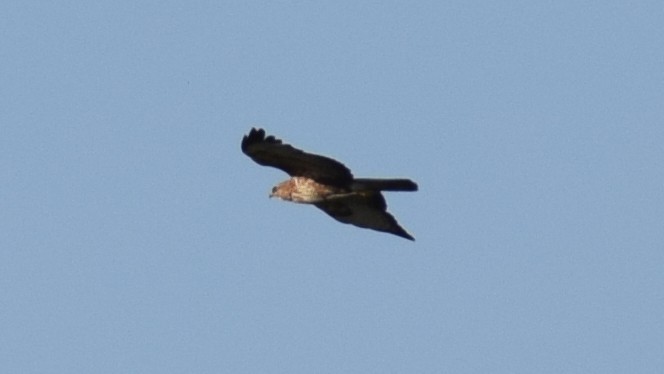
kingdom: Animalia
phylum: Chordata
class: Aves
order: Coraciiformes
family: Coraciidae
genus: Coracias
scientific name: Coracias garrulus
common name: European roller
